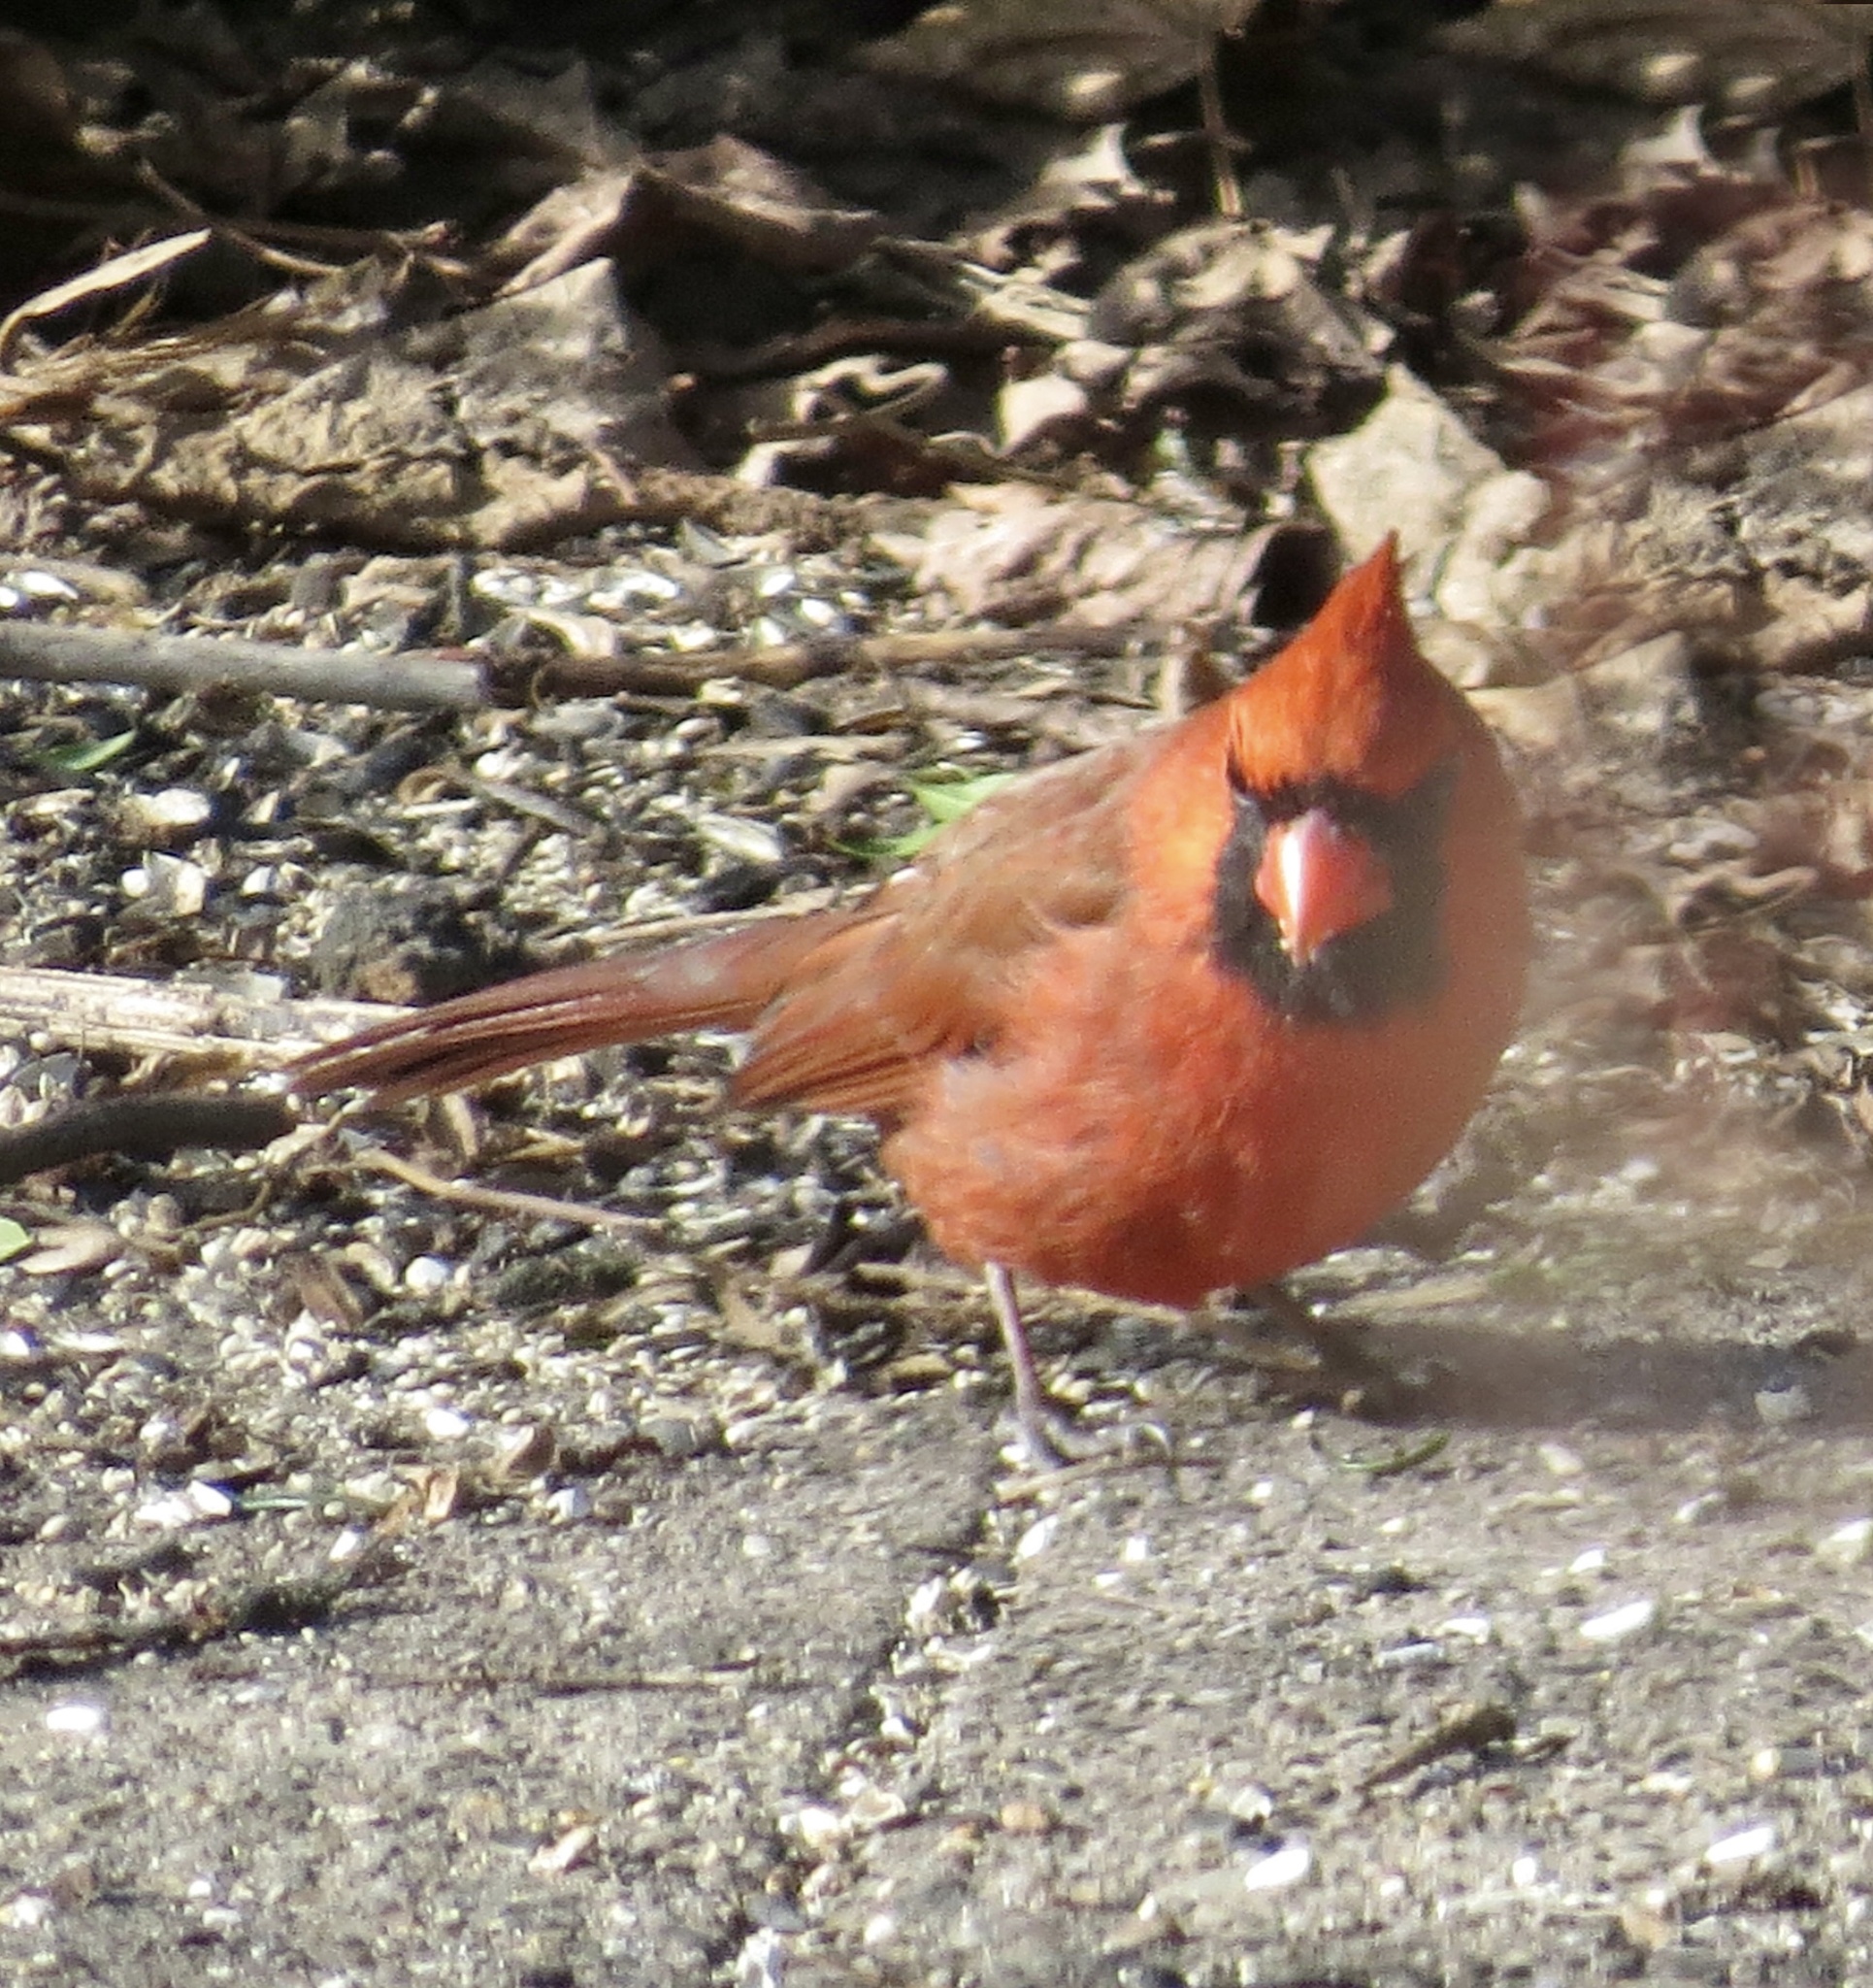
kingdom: Animalia
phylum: Chordata
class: Aves
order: Passeriformes
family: Cardinalidae
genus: Cardinalis
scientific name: Cardinalis cardinalis
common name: Northern cardinal
